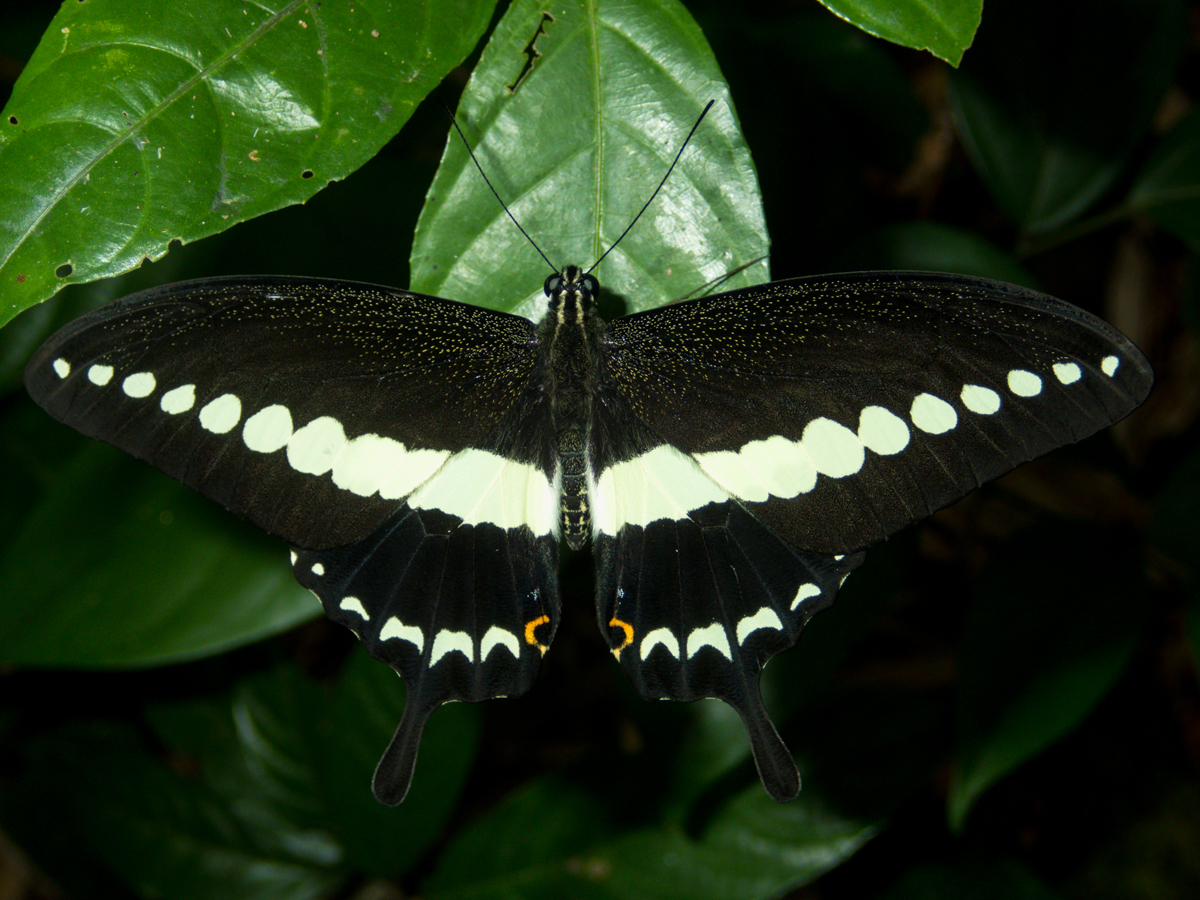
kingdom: Animalia
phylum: Arthropoda
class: Insecta
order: Lepidoptera
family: Papilionidae
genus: Papilio
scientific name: Papilio demolion
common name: Banded swallowtail
